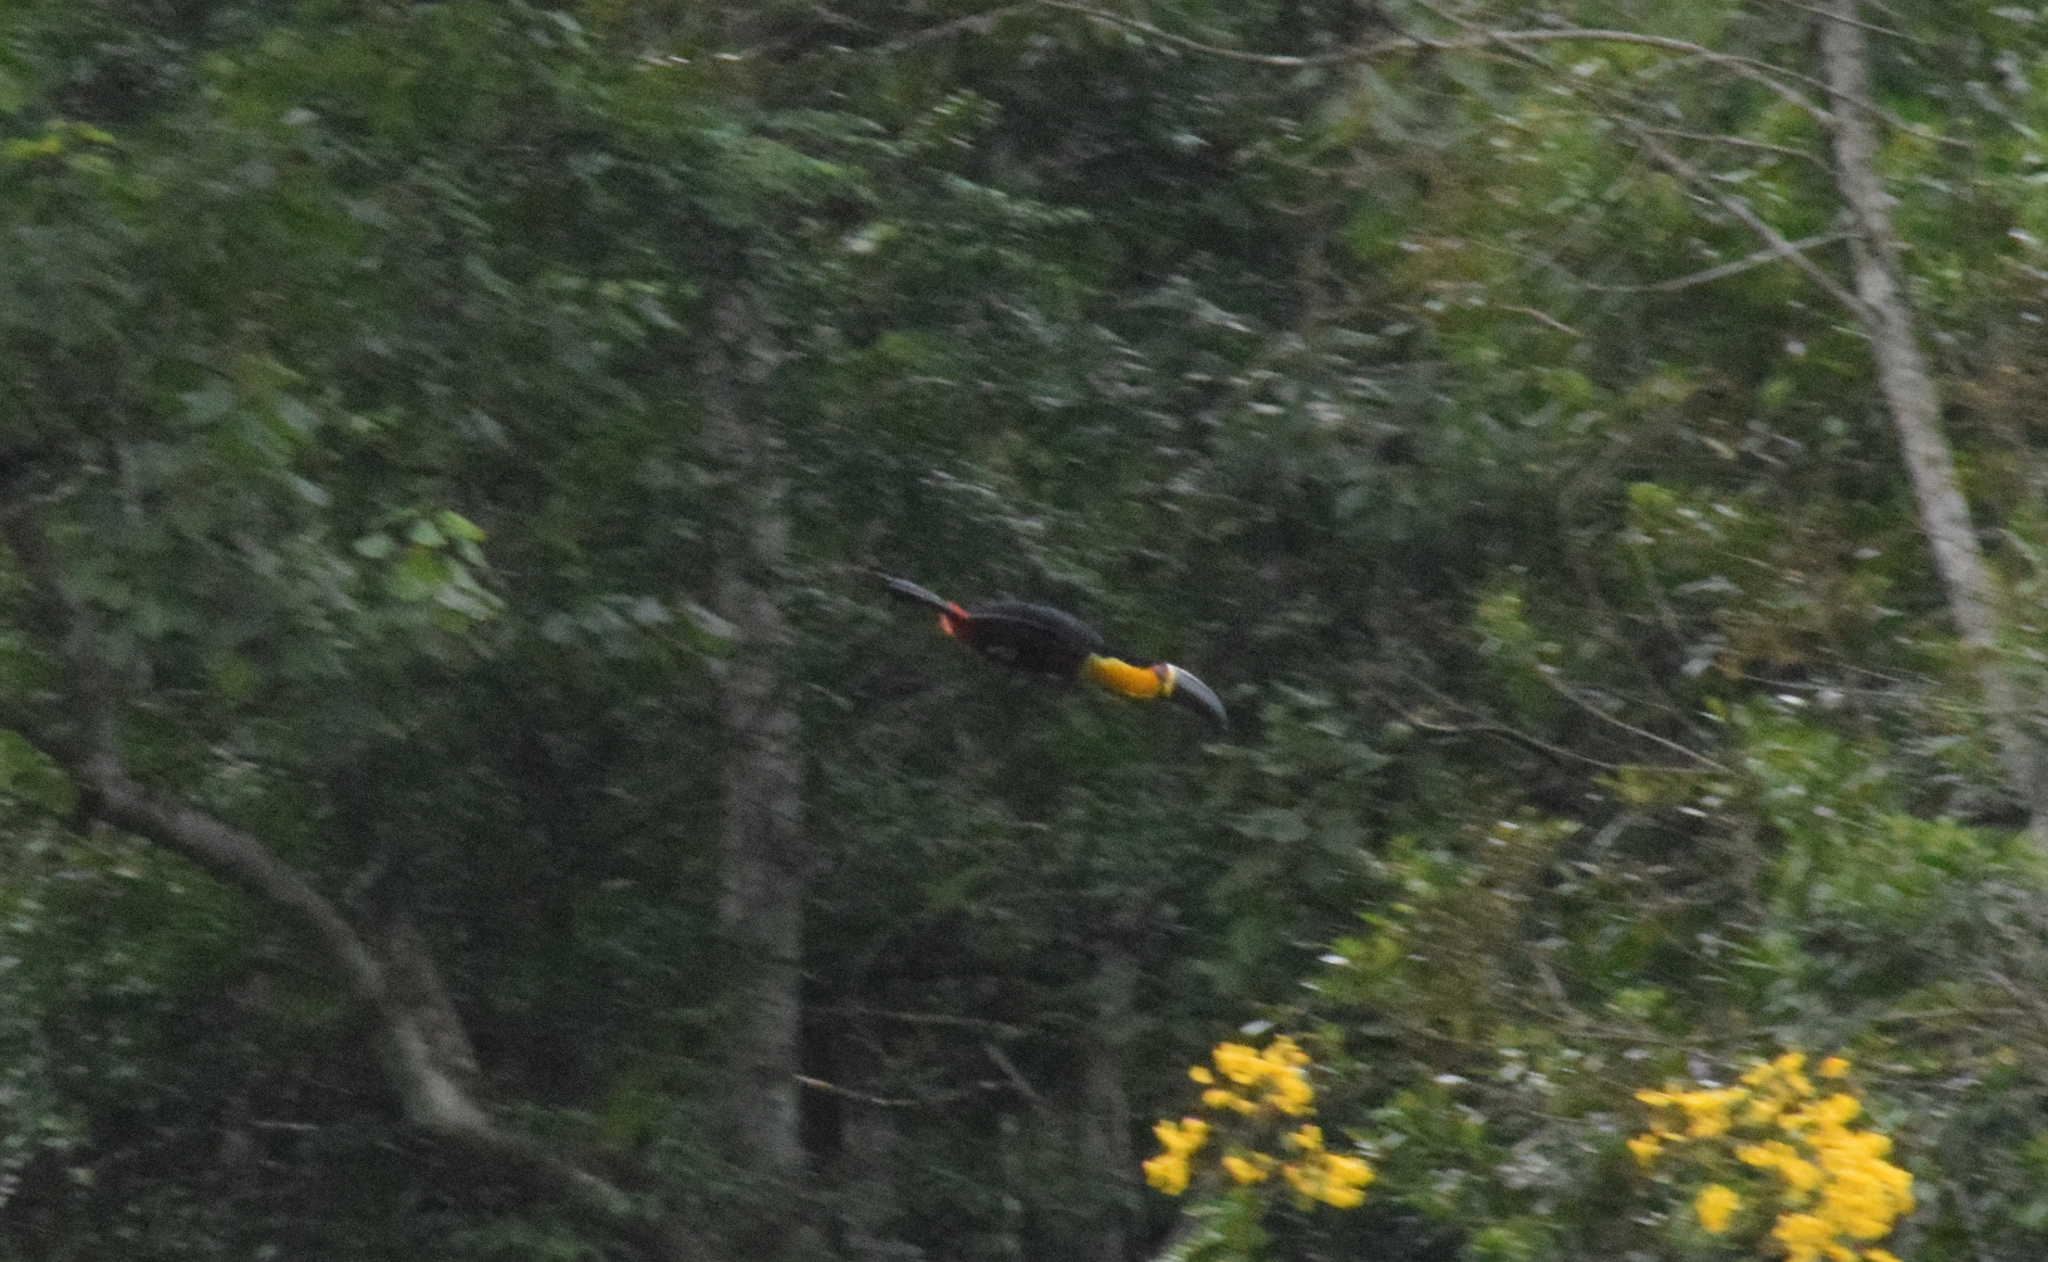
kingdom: Animalia
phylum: Chordata
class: Aves
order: Piciformes
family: Ramphastidae
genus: Ramphastos
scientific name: Ramphastos vitellinus
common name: Channel-billed toucan
